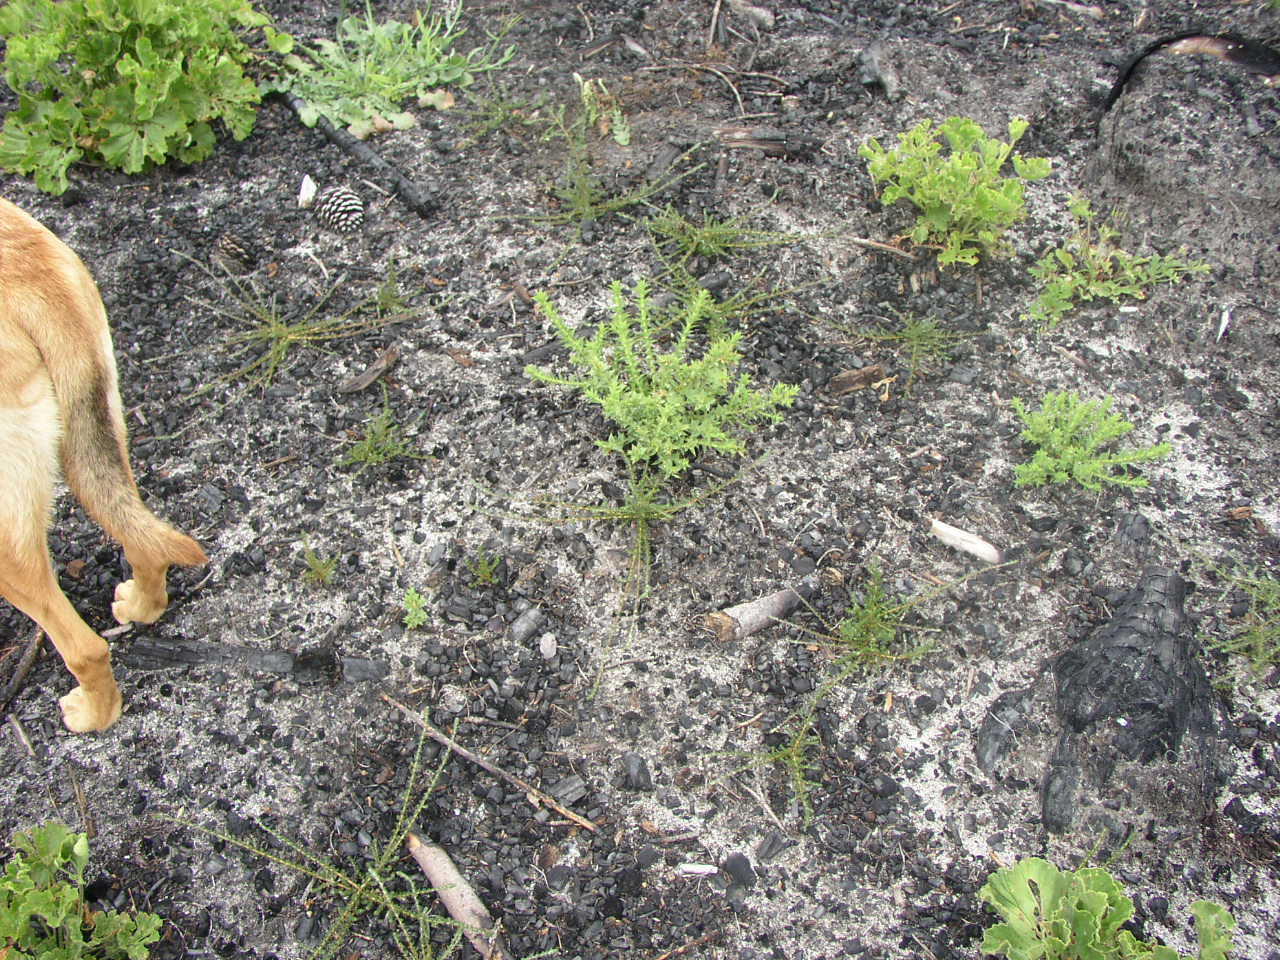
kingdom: Plantae
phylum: Tracheophyta
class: Magnoliopsida
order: Fabales
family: Fabaceae
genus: Aspalathus
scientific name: Aspalathus cordata
